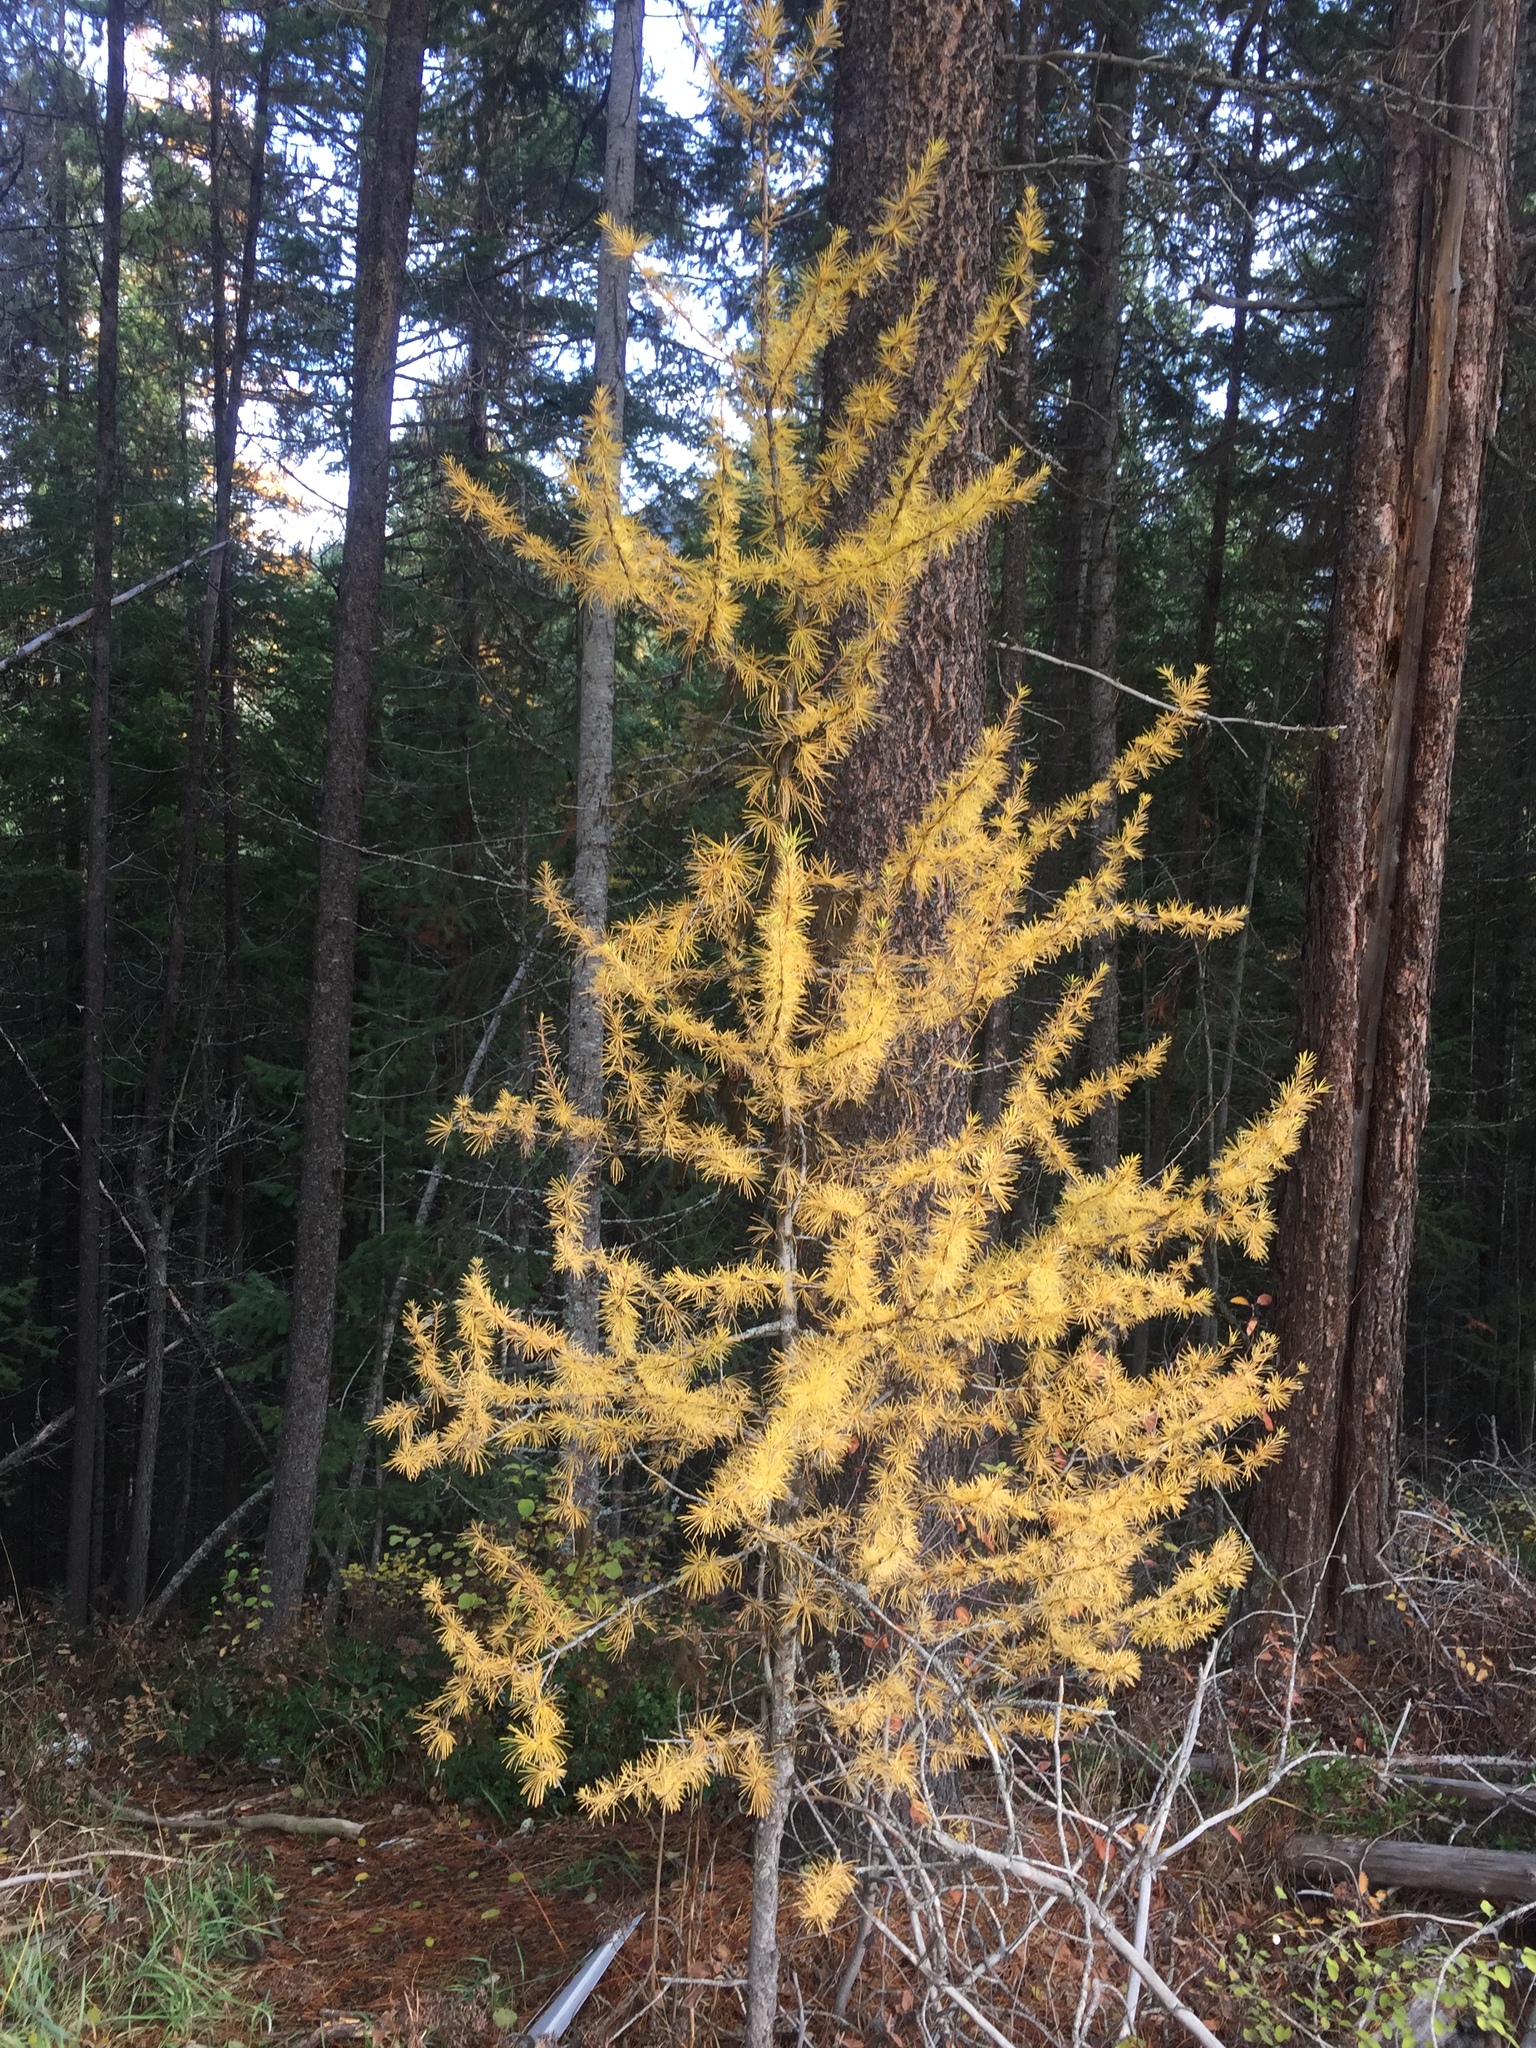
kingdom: Plantae
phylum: Tracheophyta
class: Pinopsida
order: Pinales
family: Pinaceae
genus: Larix
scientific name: Larix occidentalis
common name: Western larch
